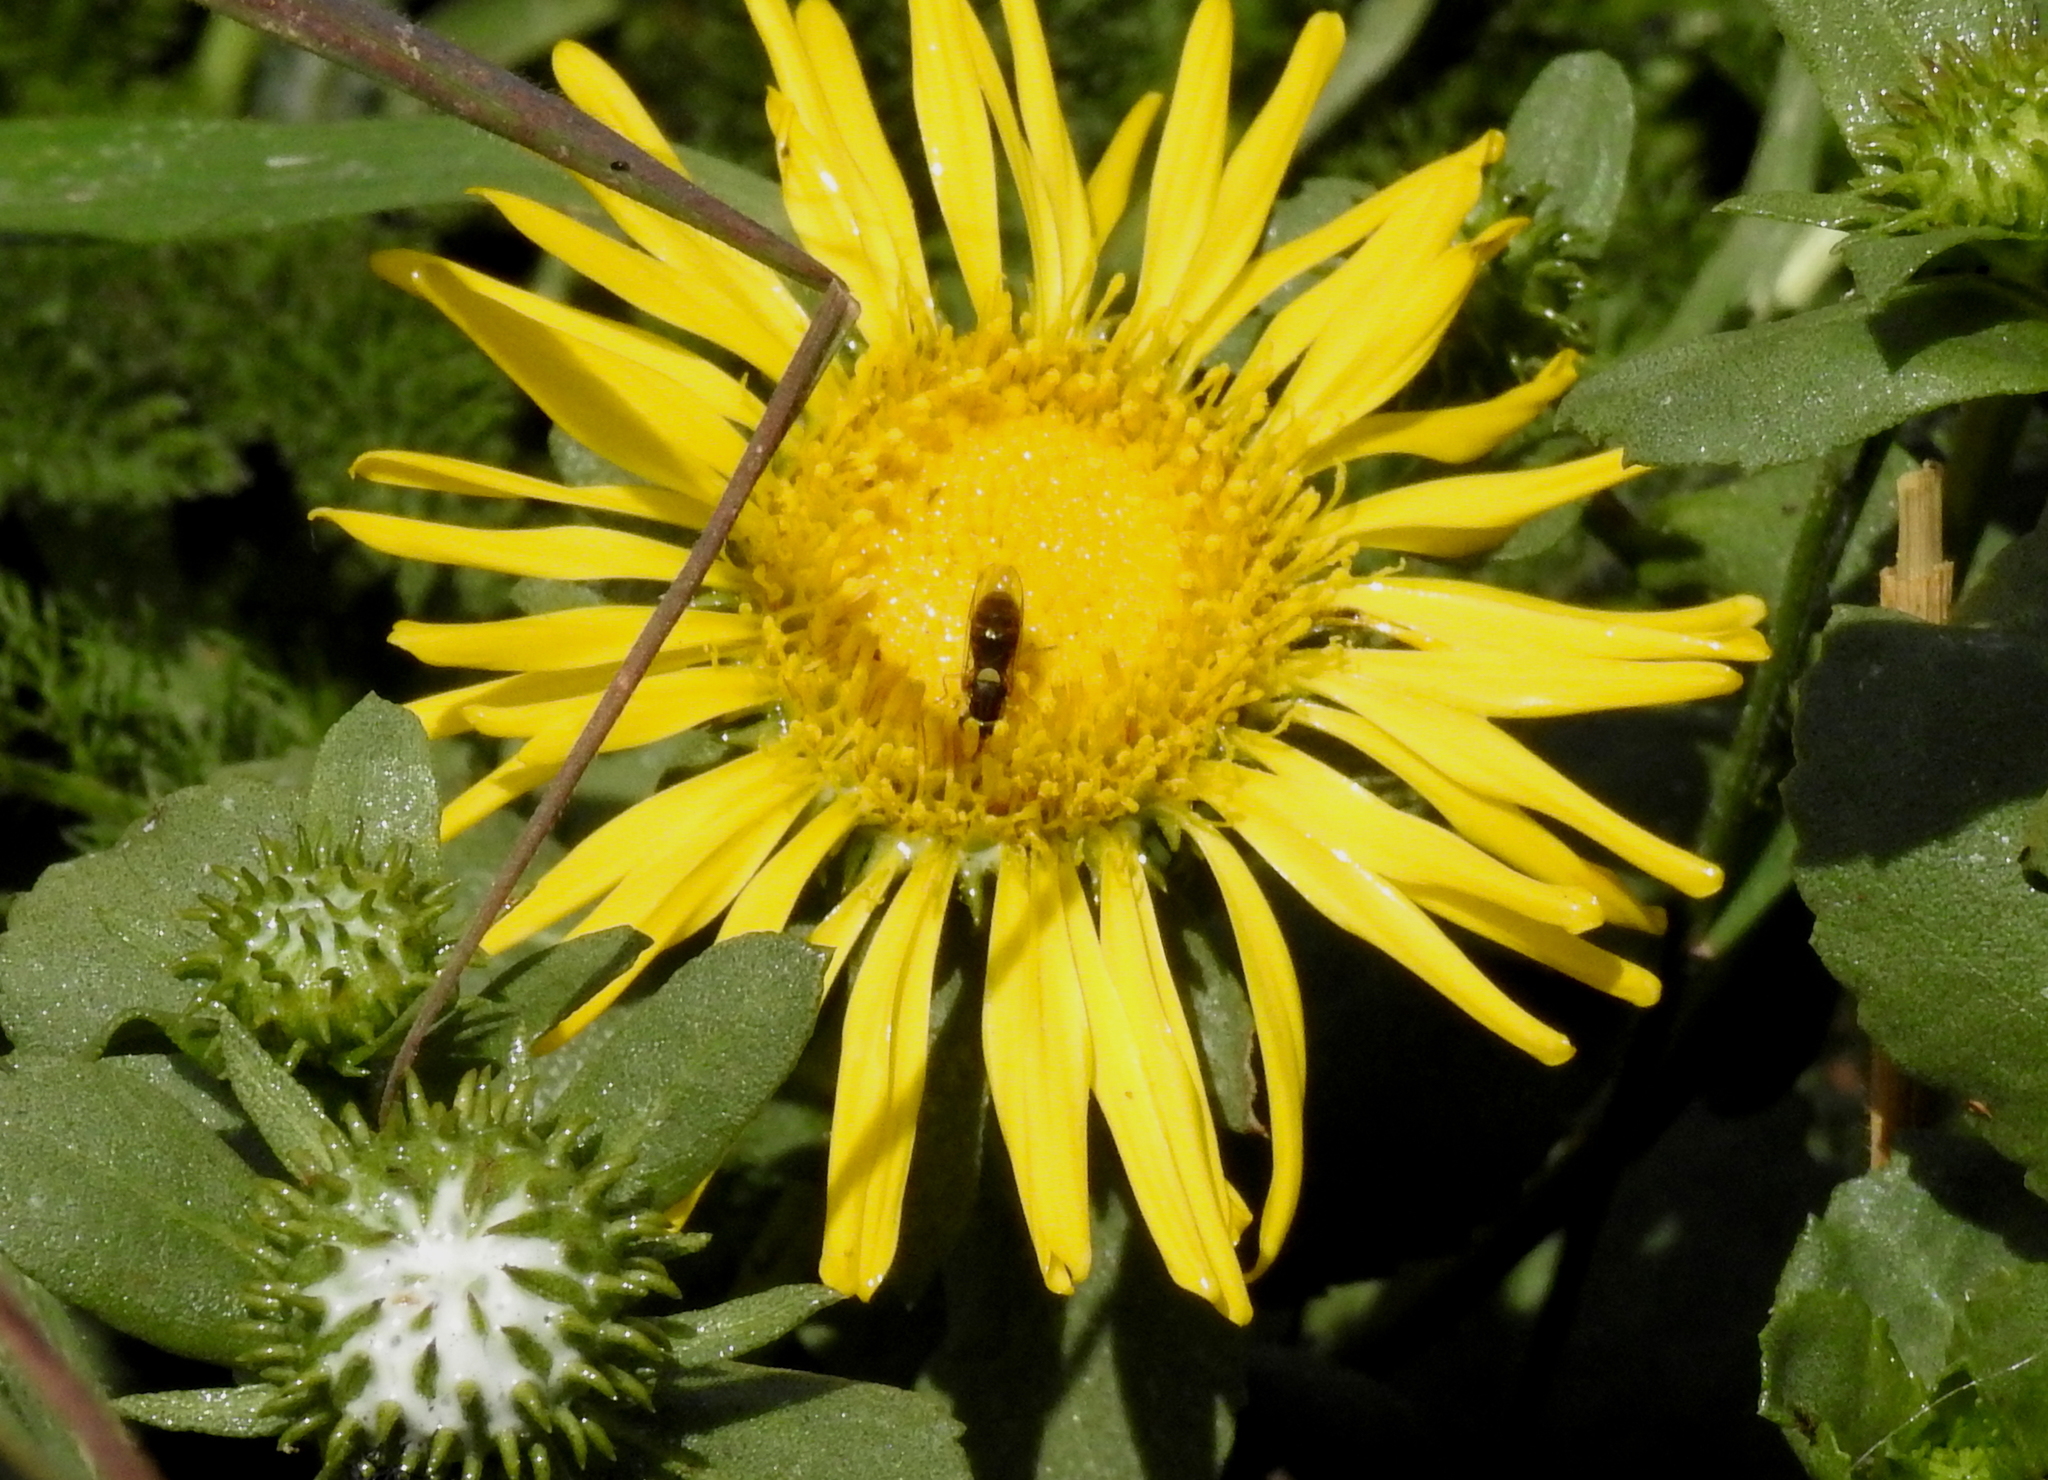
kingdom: Animalia
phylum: Arthropoda
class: Insecta
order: Diptera
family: Syrphidae
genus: Sphaerophoria
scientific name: Sphaerophoria sulphuripes
